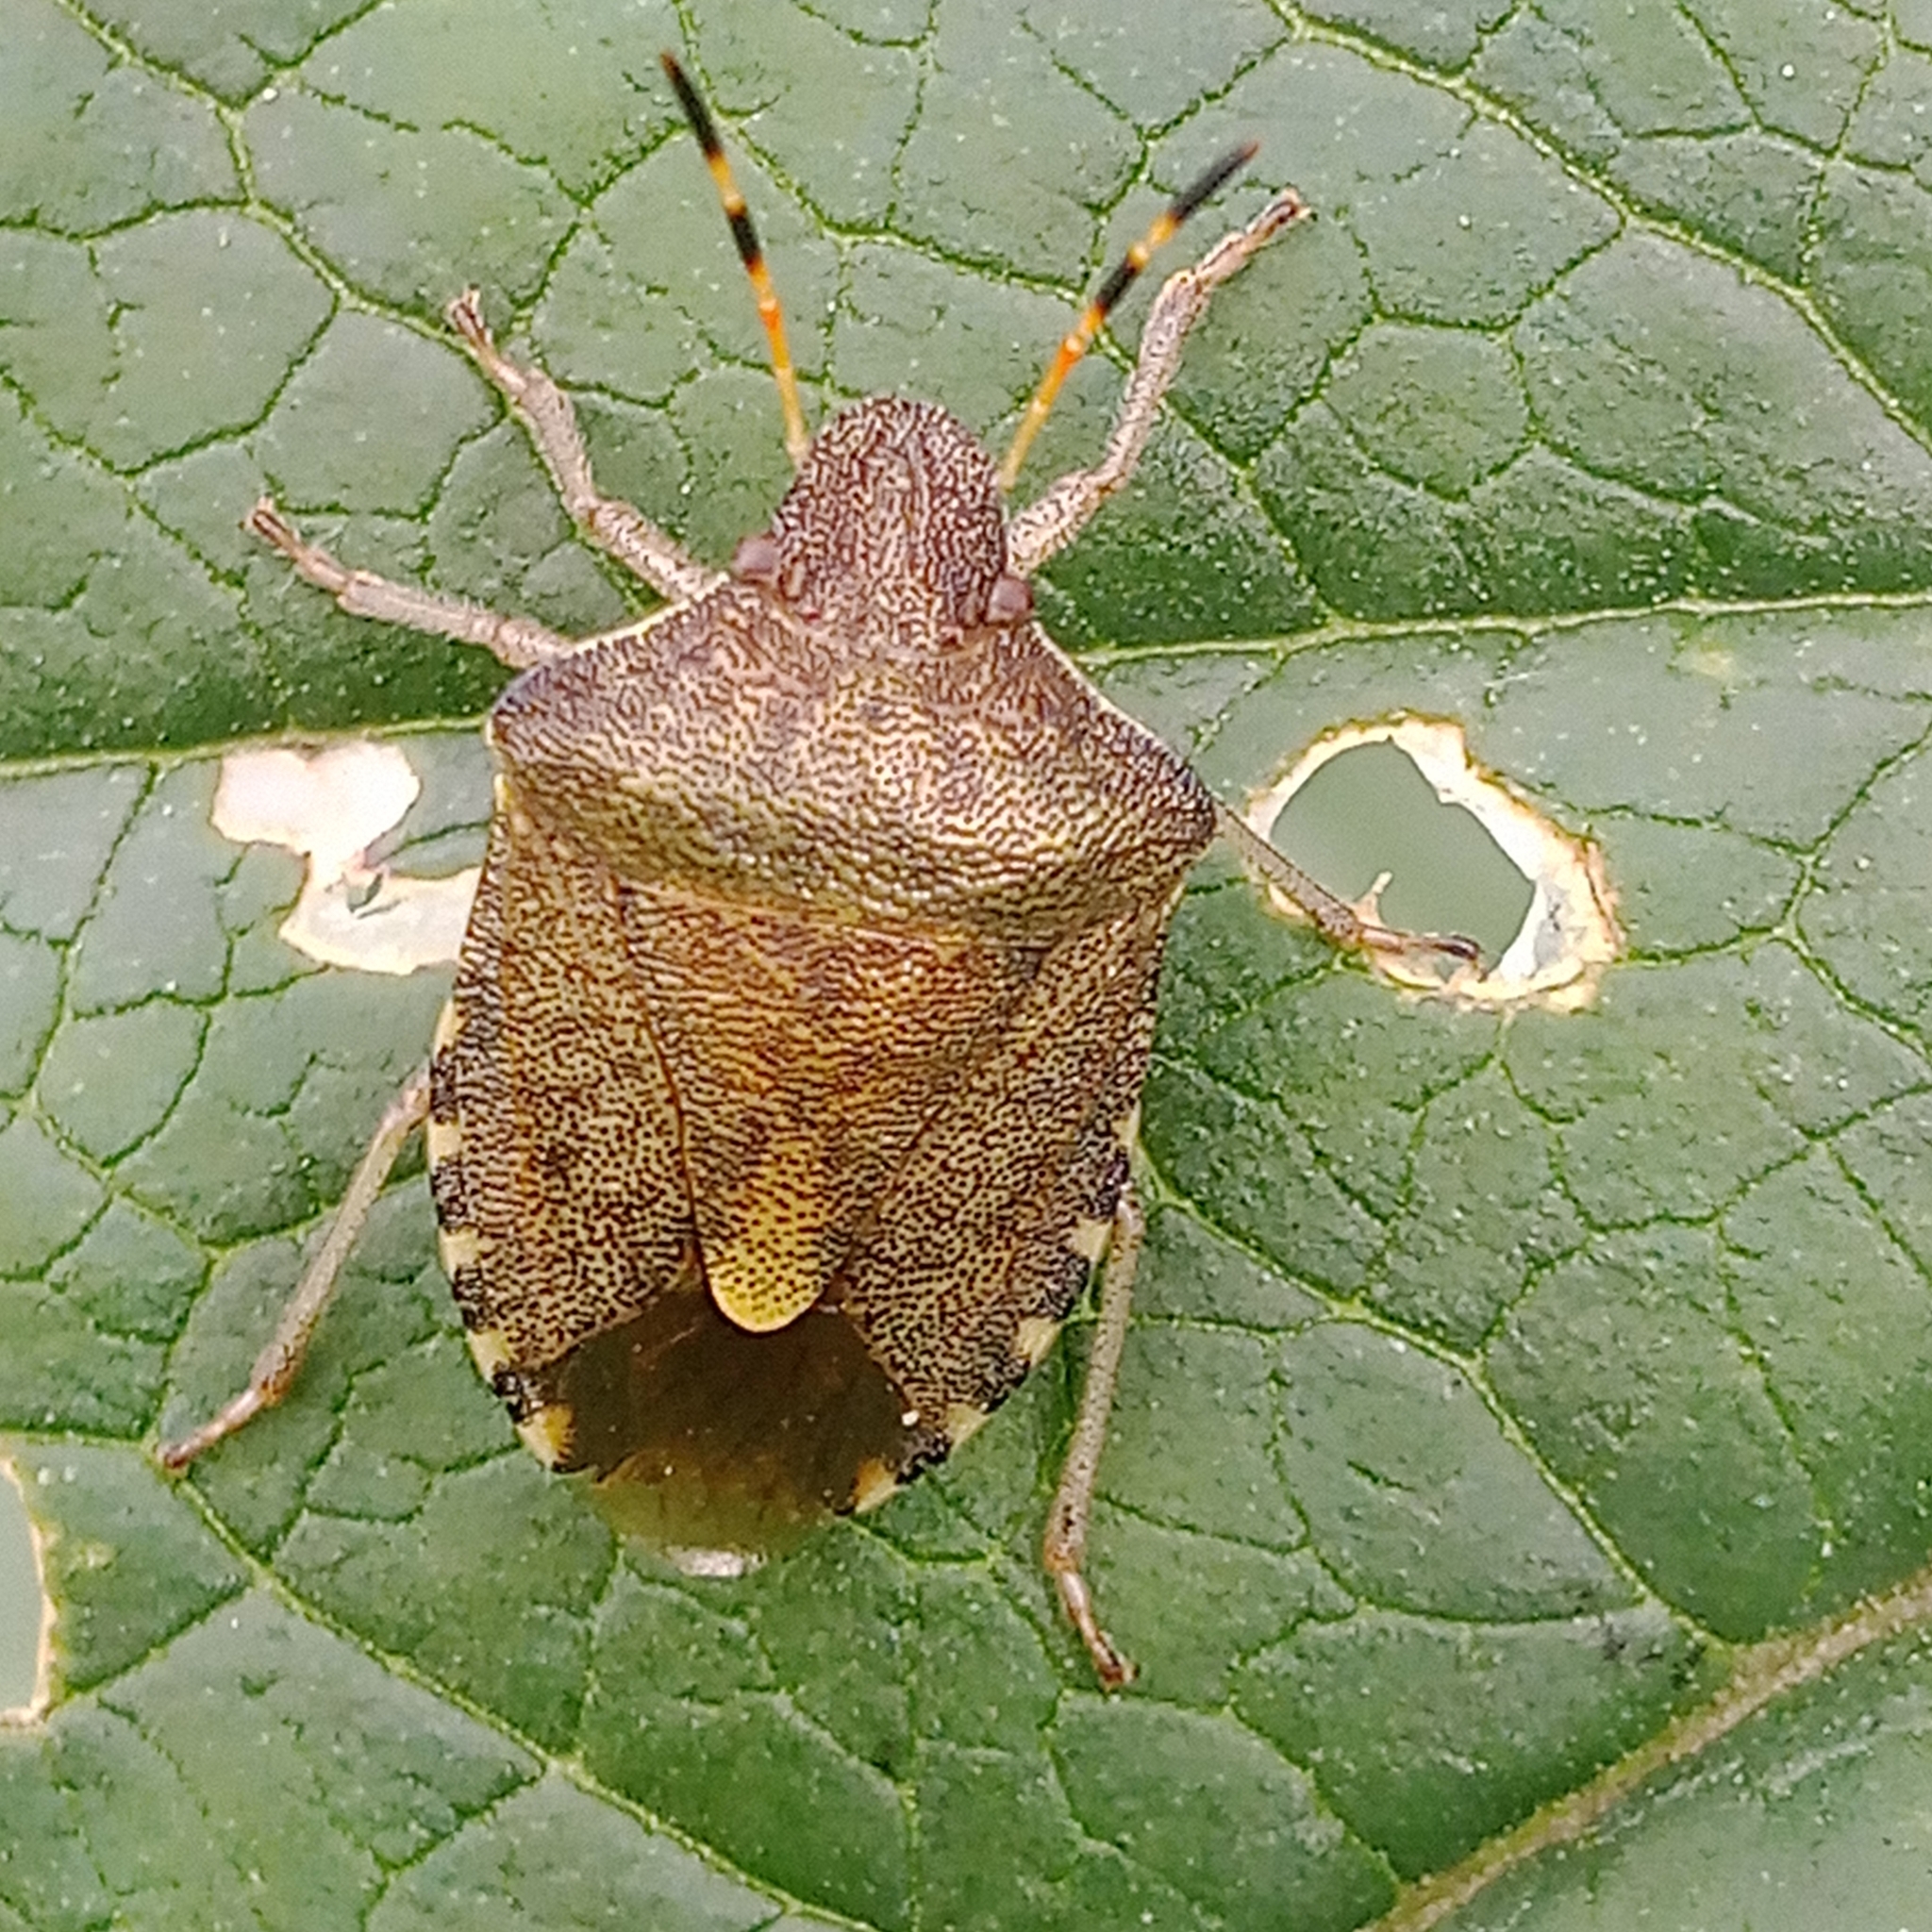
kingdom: Animalia
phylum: Arthropoda
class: Insecta
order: Hemiptera
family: Pentatomidae
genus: Holcostethus
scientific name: Holcostethus strictus
